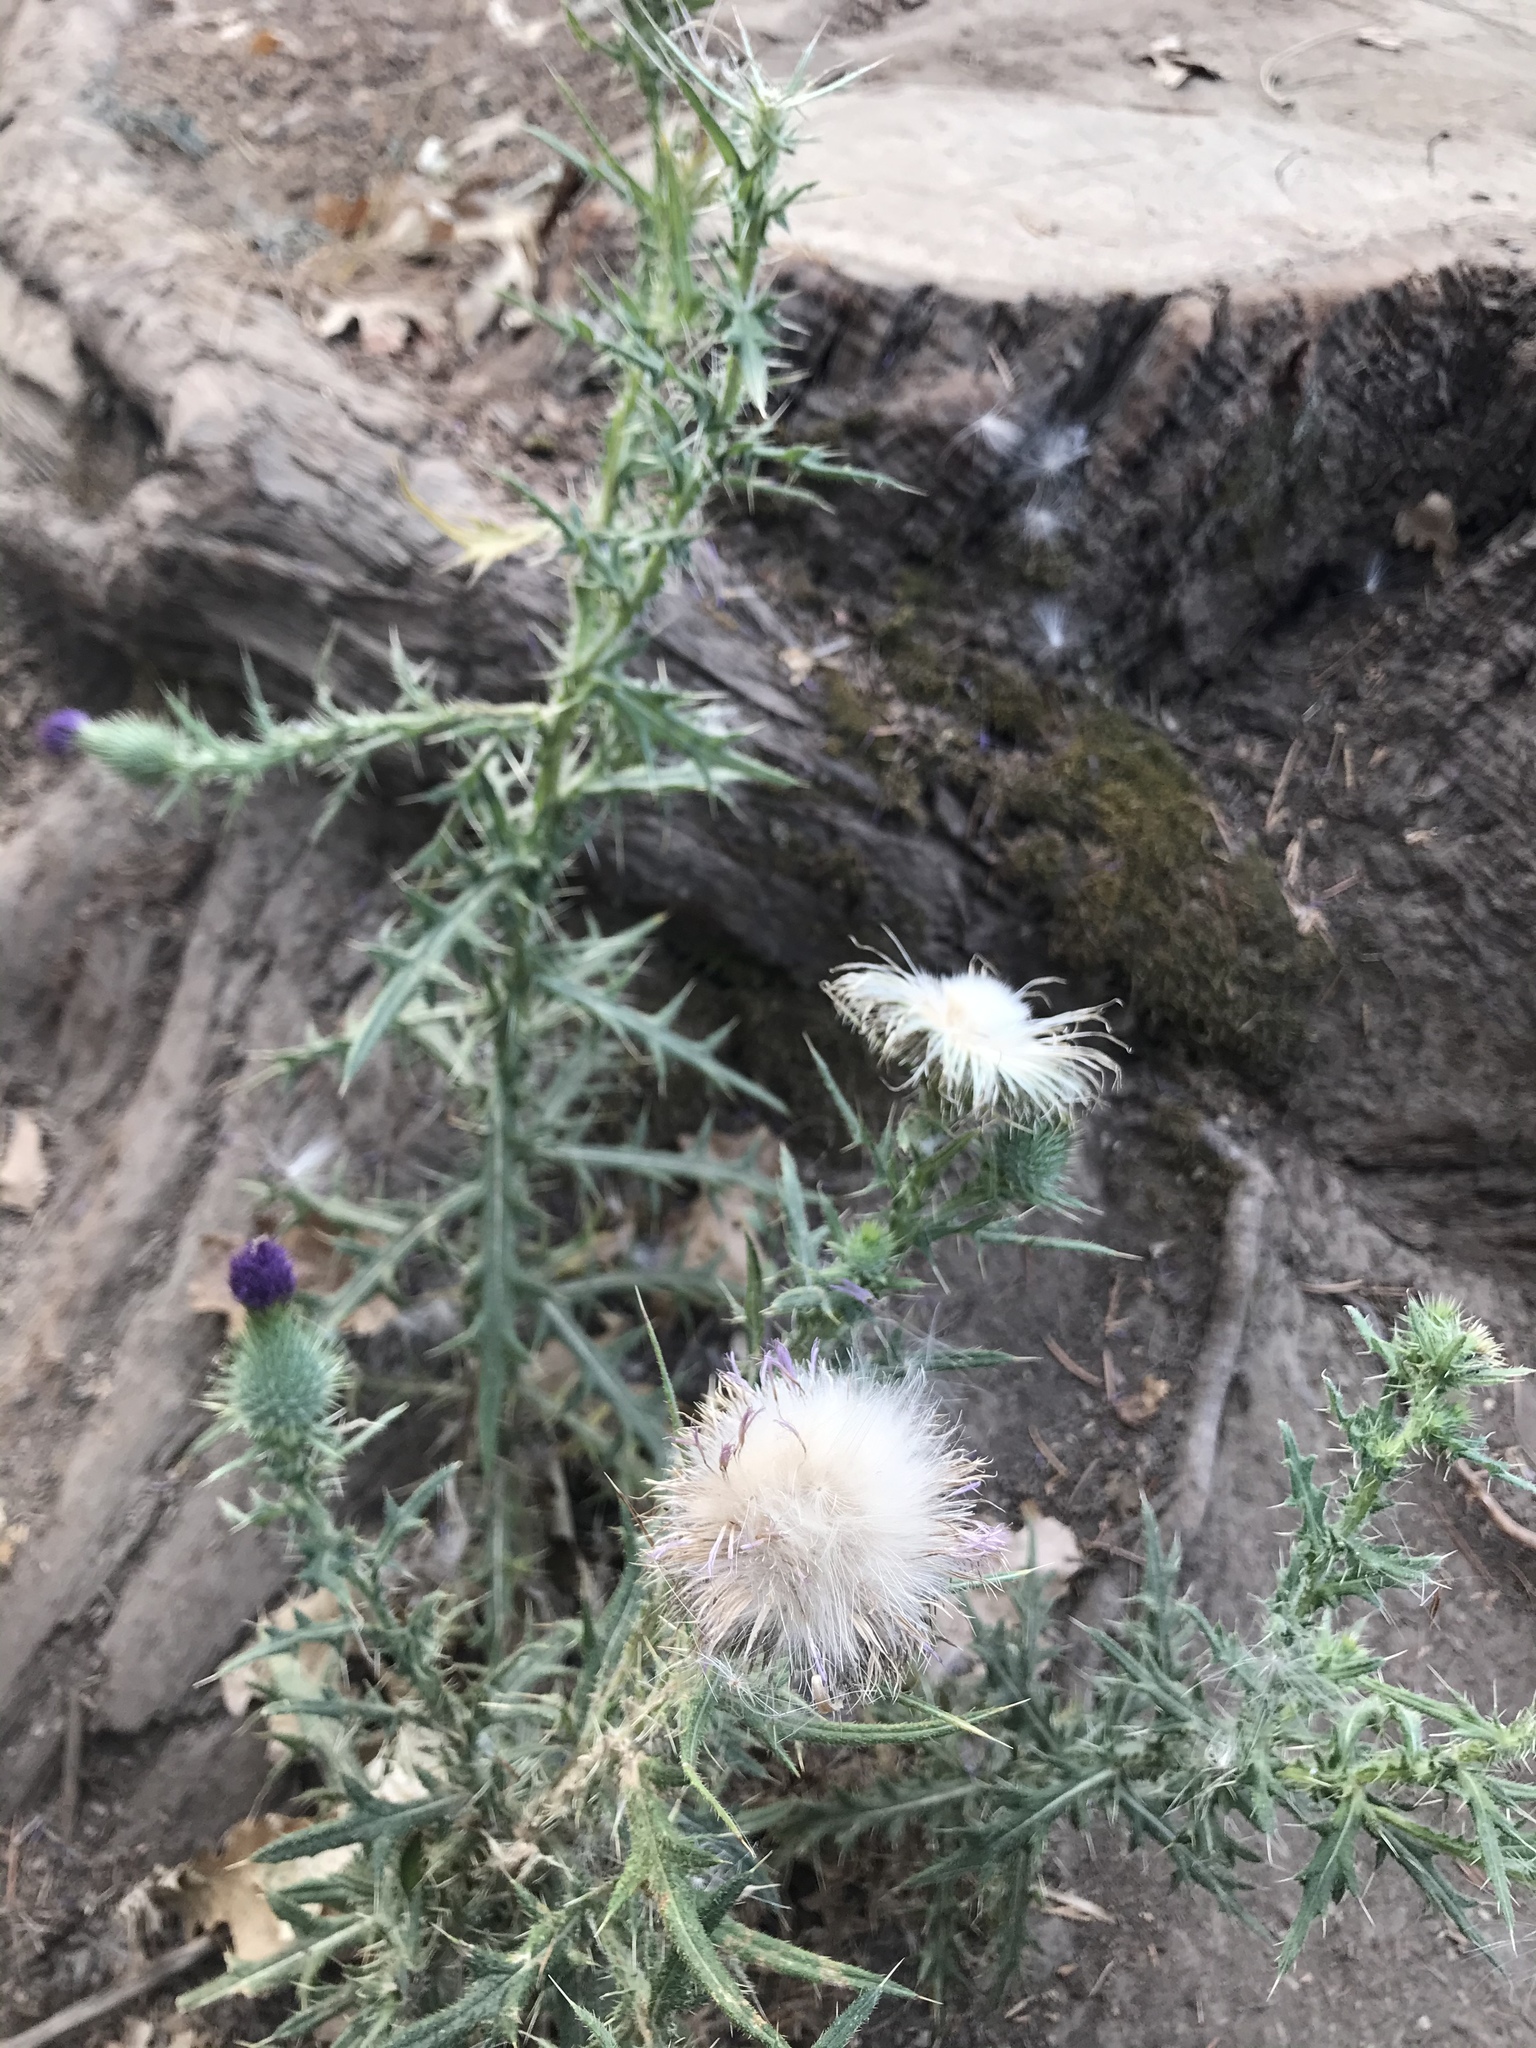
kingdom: Plantae
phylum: Tracheophyta
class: Magnoliopsida
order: Asterales
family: Asteraceae
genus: Cirsium
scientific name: Cirsium vulgare
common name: Bull thistle
